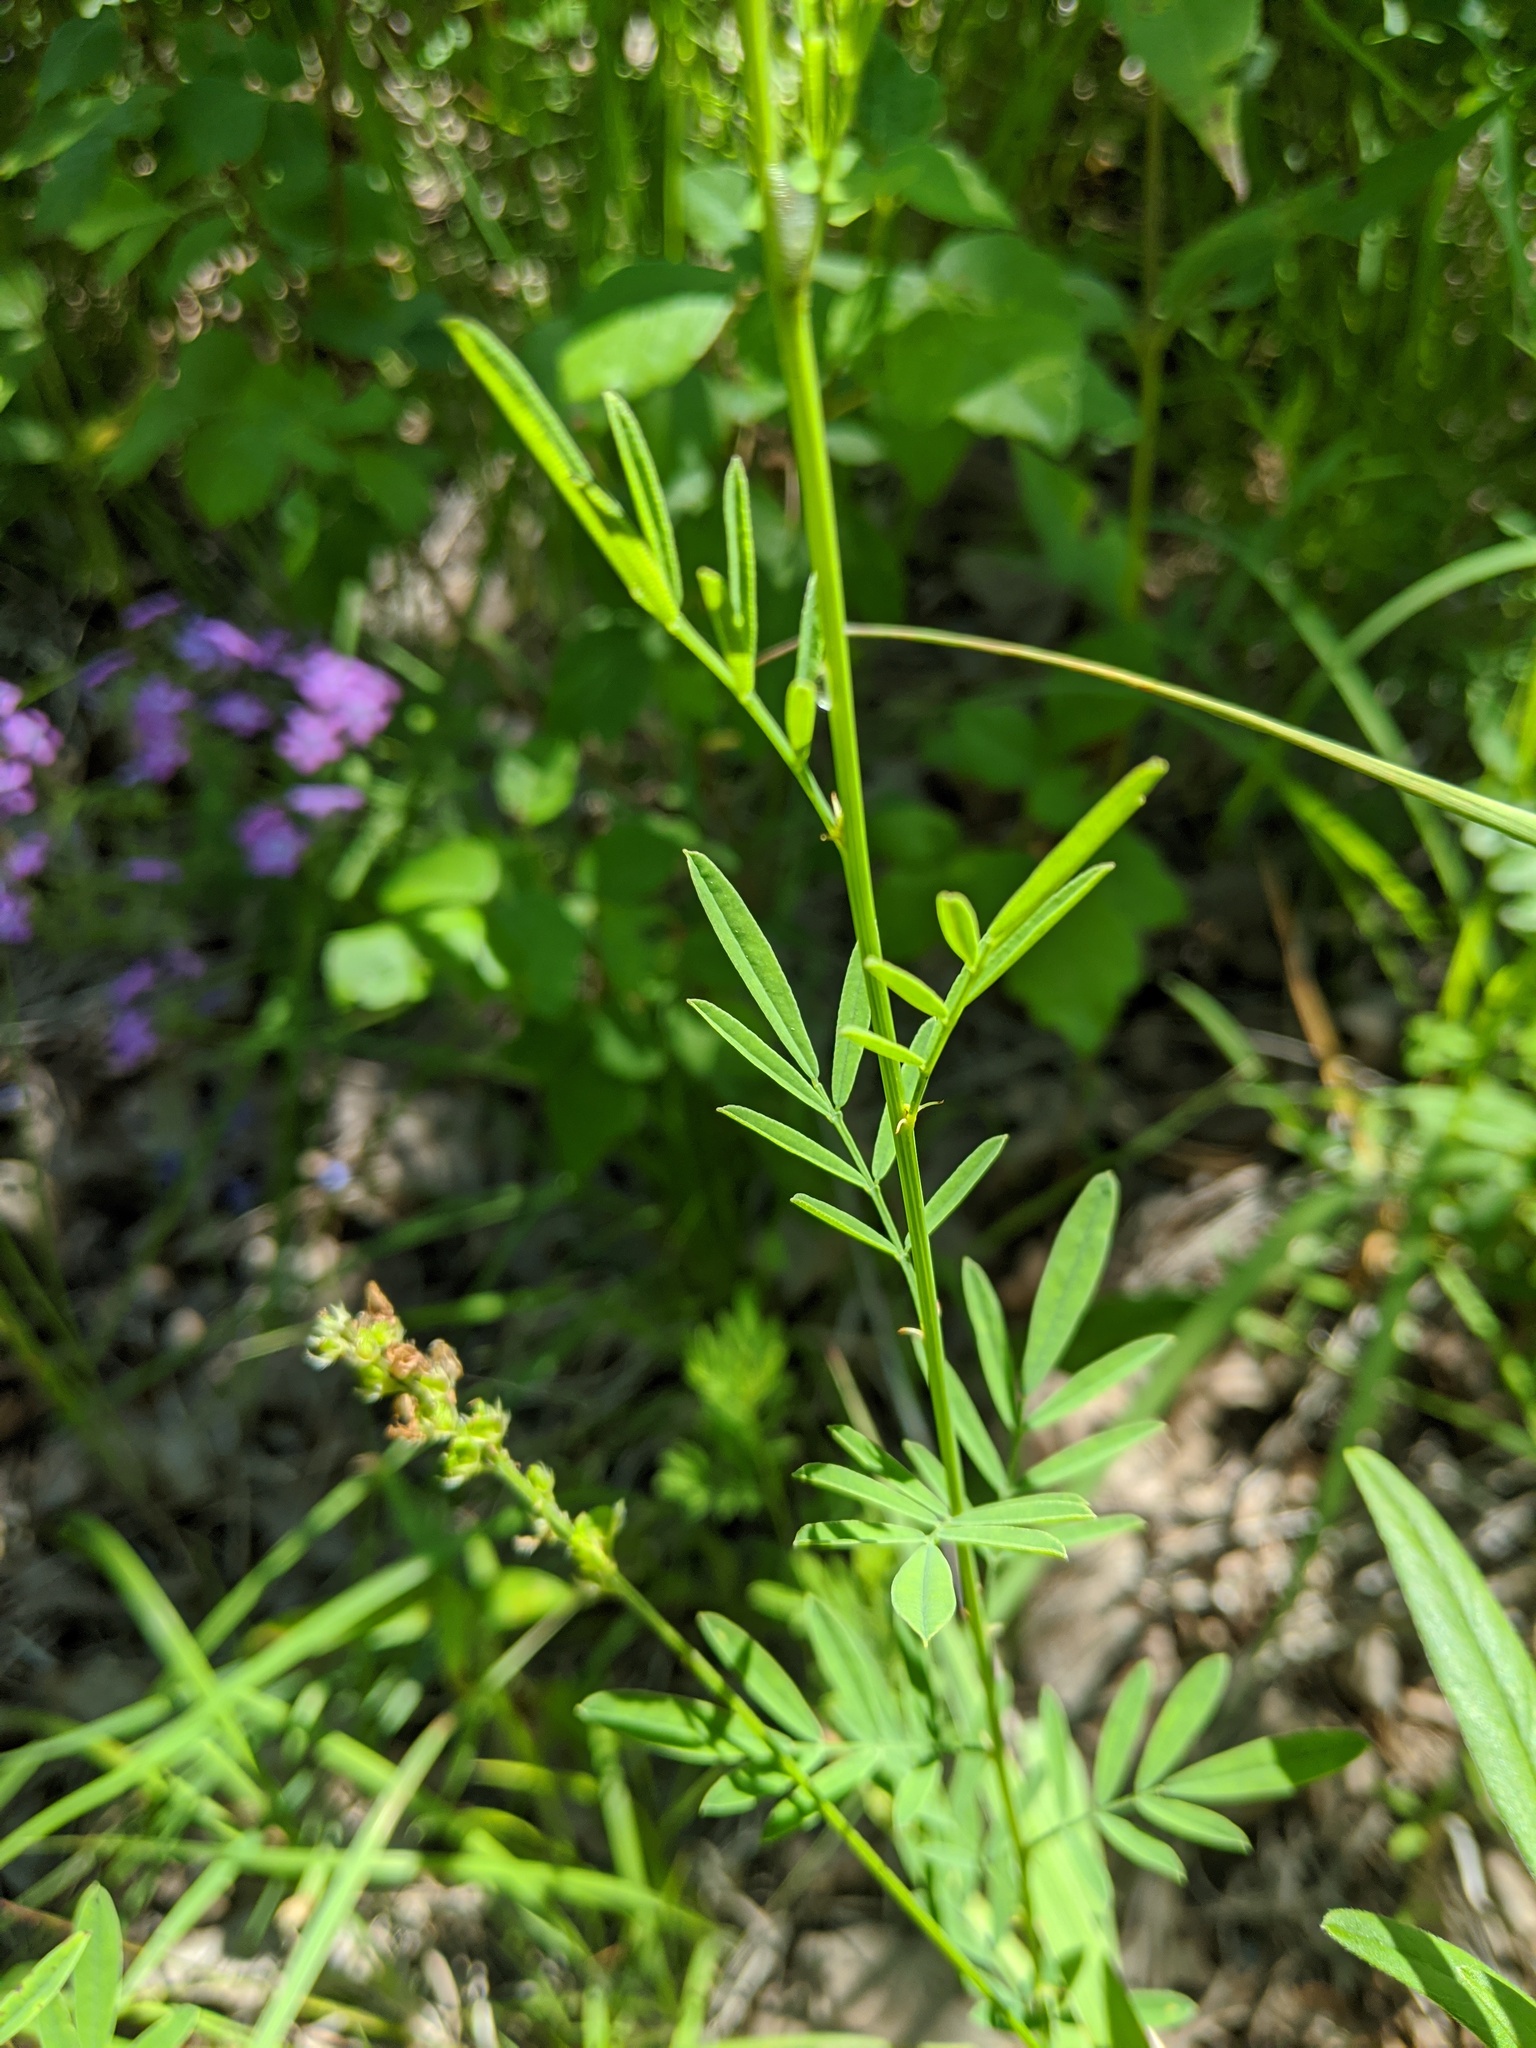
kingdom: Plantae
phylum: Tracheophyta
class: Magnoliopsida
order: Fabales
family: Fabaceae
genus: Dalea
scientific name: Dalea candida
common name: White prairie-clover
